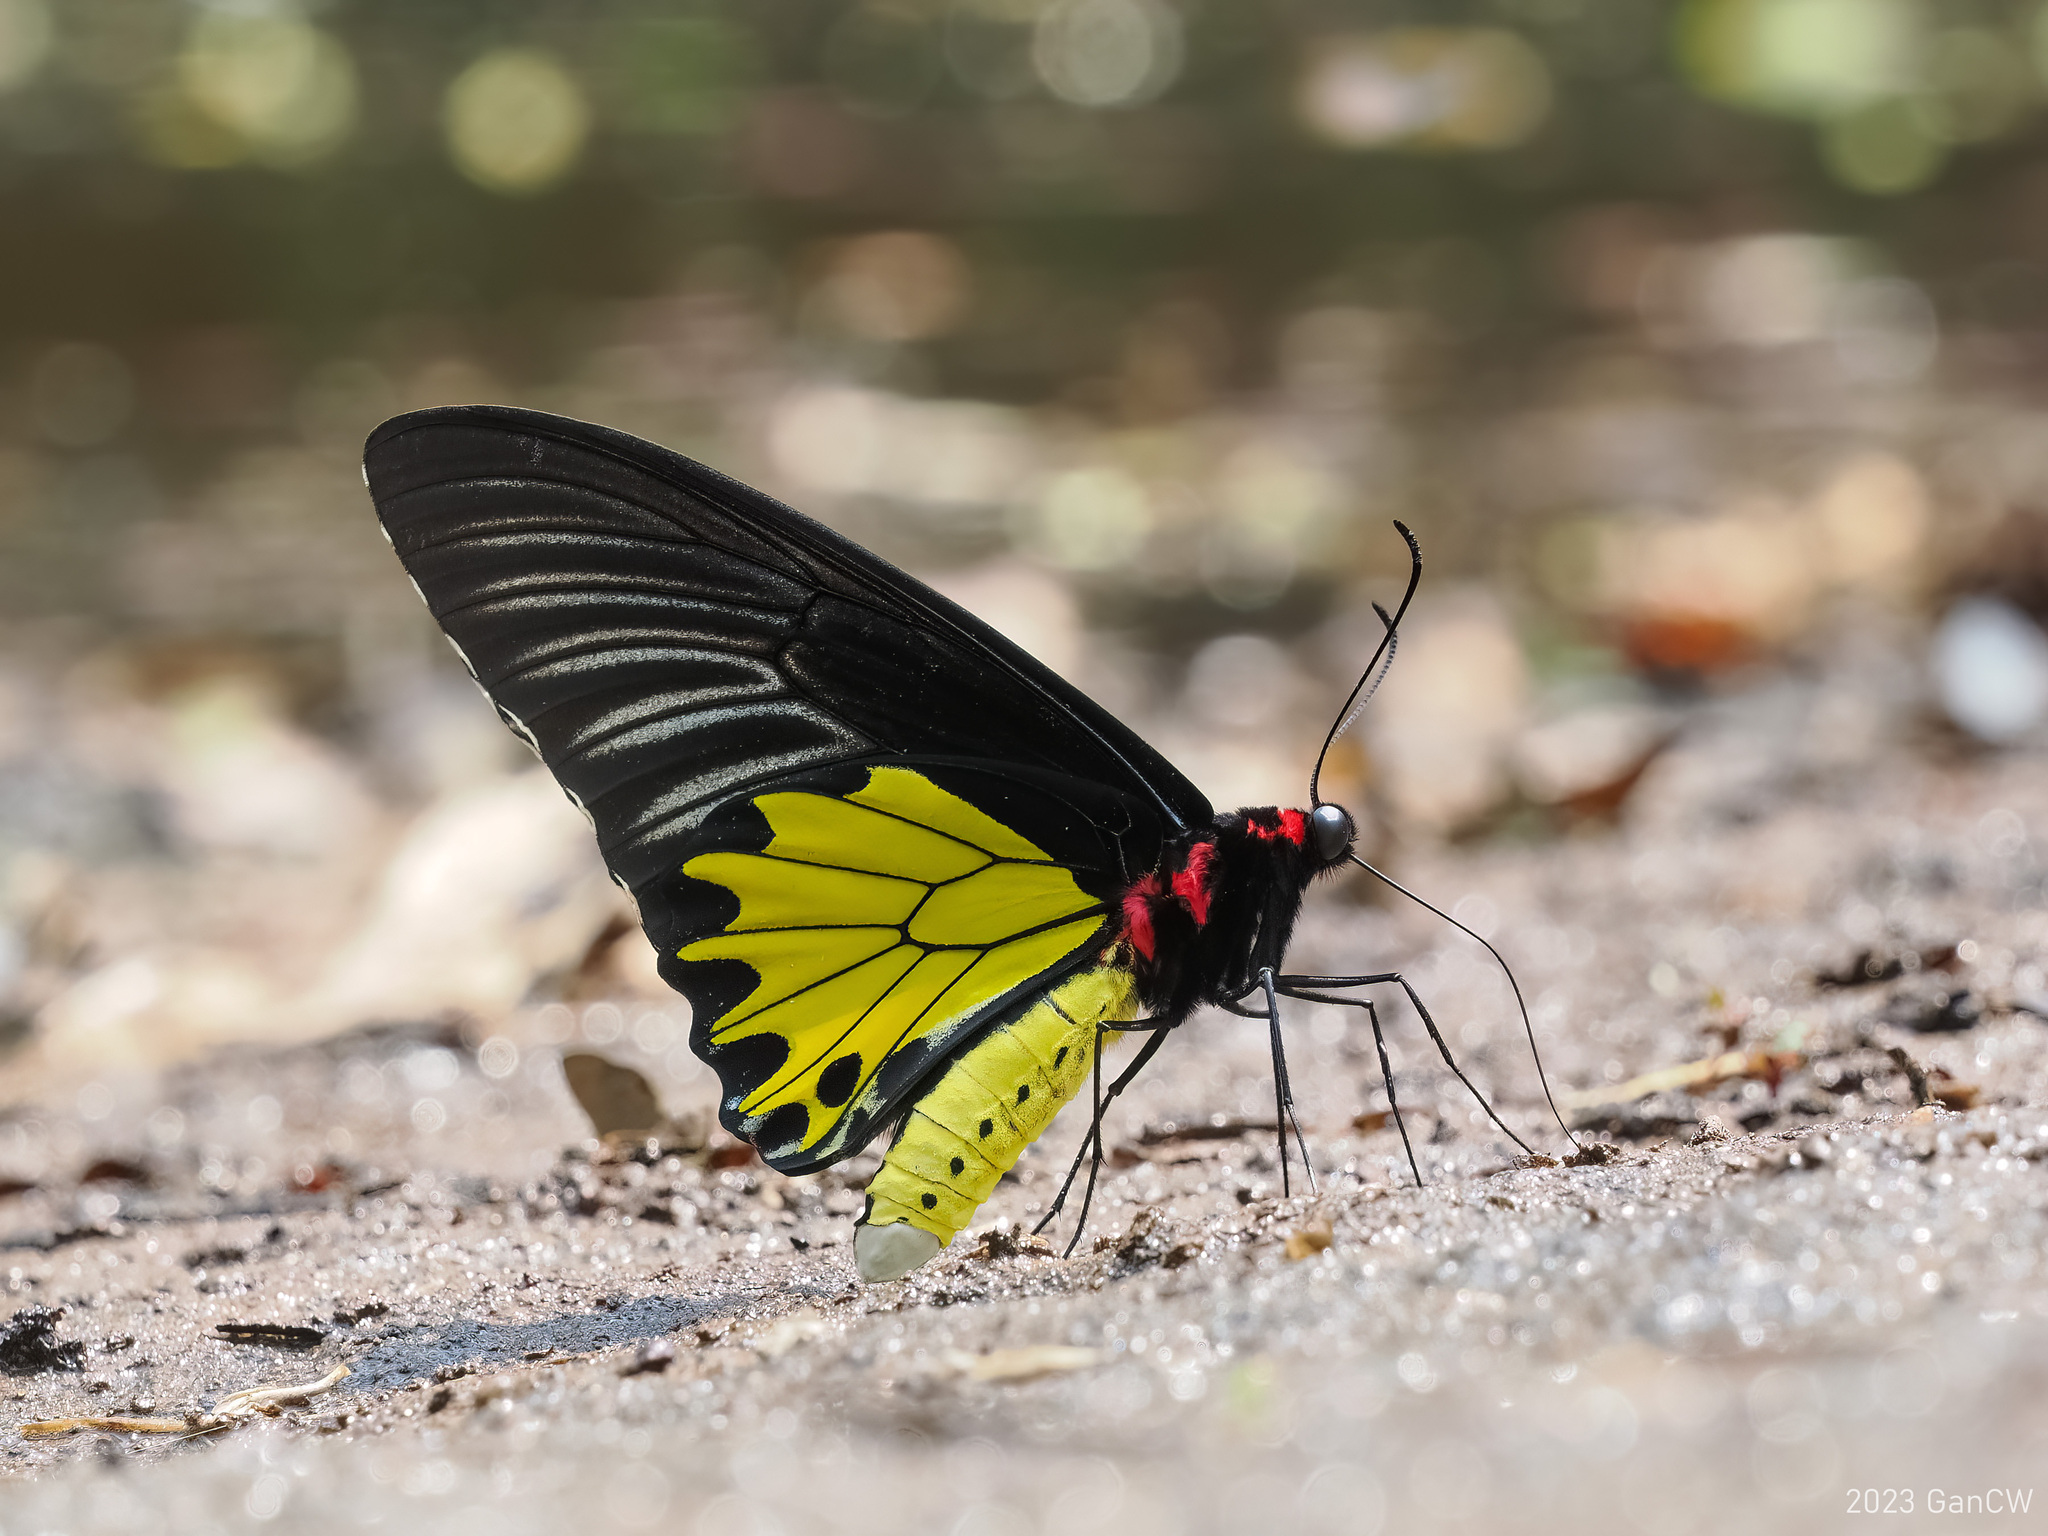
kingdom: Animalia
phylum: Arthropoda
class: Insecta
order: Lepidoptera
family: Papilionidae
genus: Troides
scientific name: Troides helena
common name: Common birdwing
